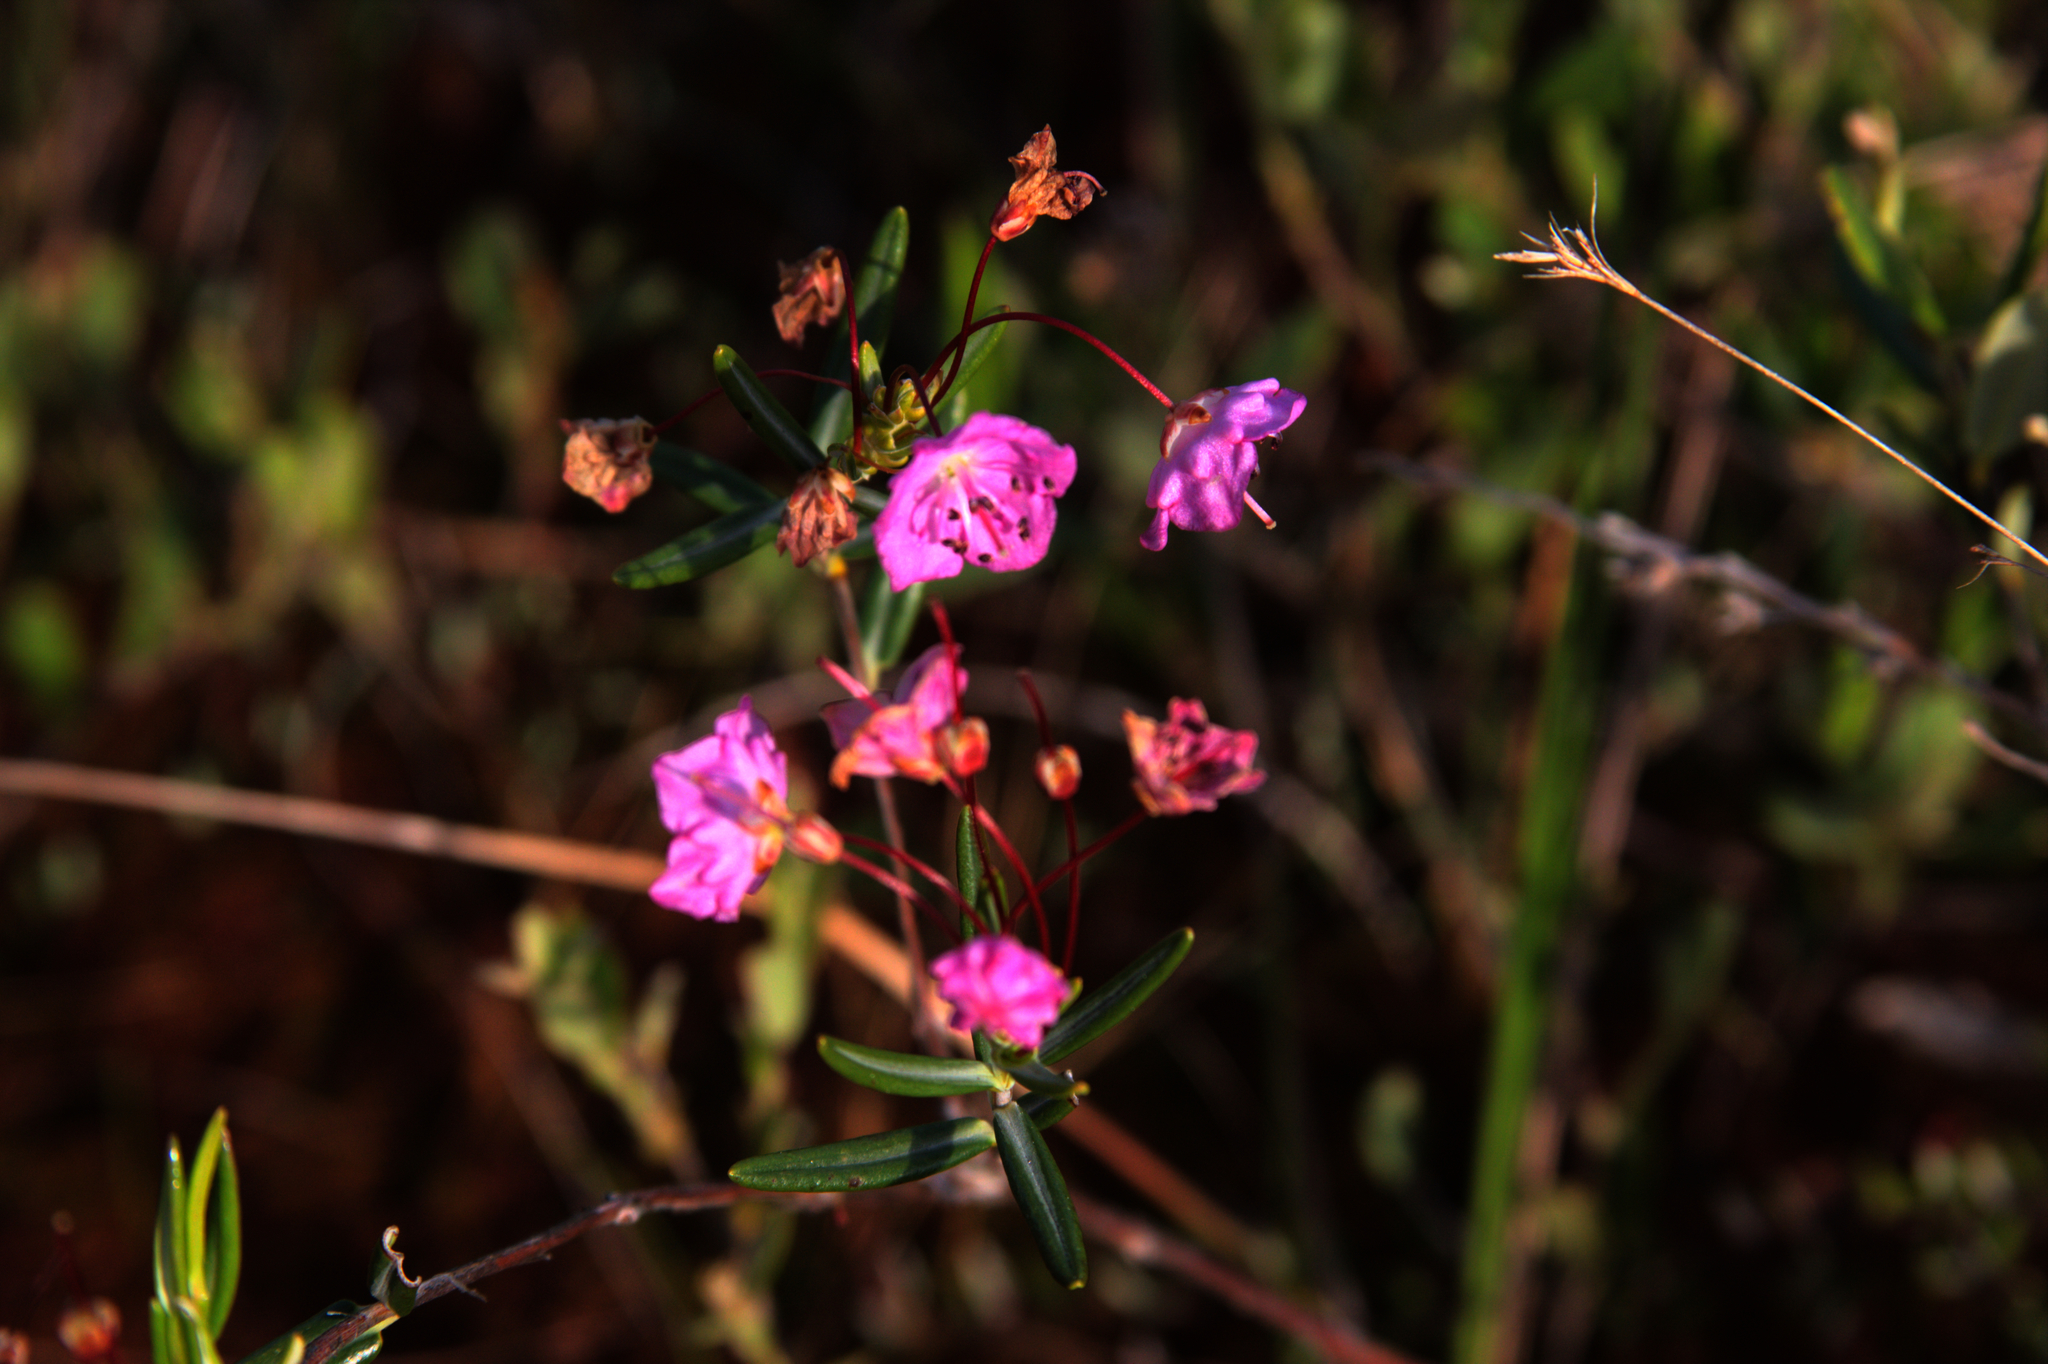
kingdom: Plantae
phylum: Tracheophyta
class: Magnoliopsida
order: Ericales
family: Ericaceae
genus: Kalmia
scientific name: Kalmia polifolia
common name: Bog-laurel
